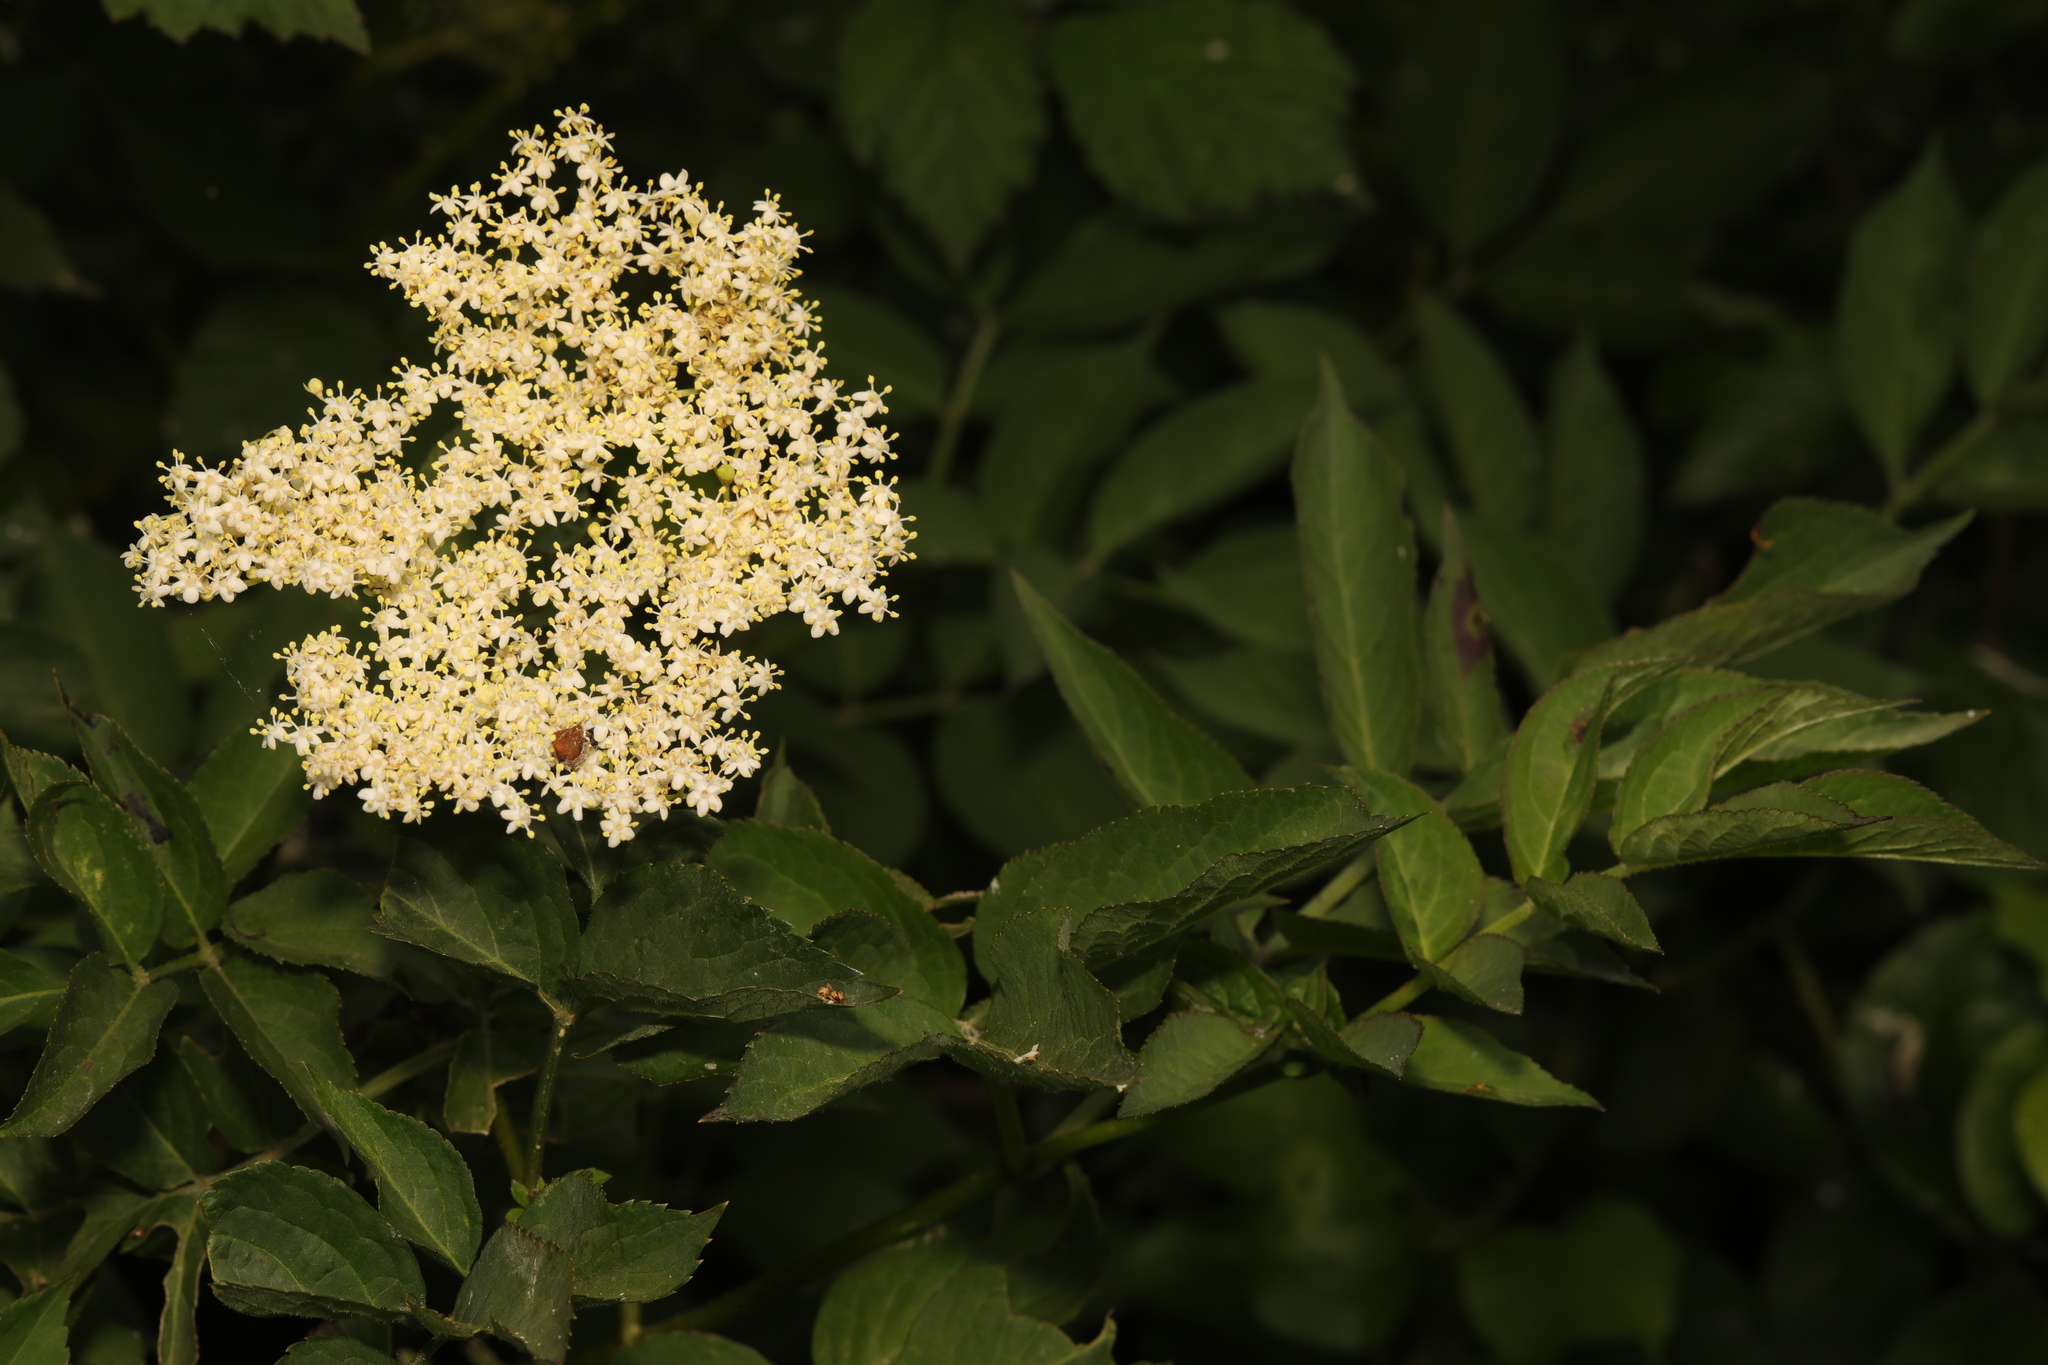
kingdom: Plantae
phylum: Tracheophyta
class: Magnoliopsida
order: Dipsacales
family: Viburnaceae
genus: Sambucus
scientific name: Sambucus nigra
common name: Elder
